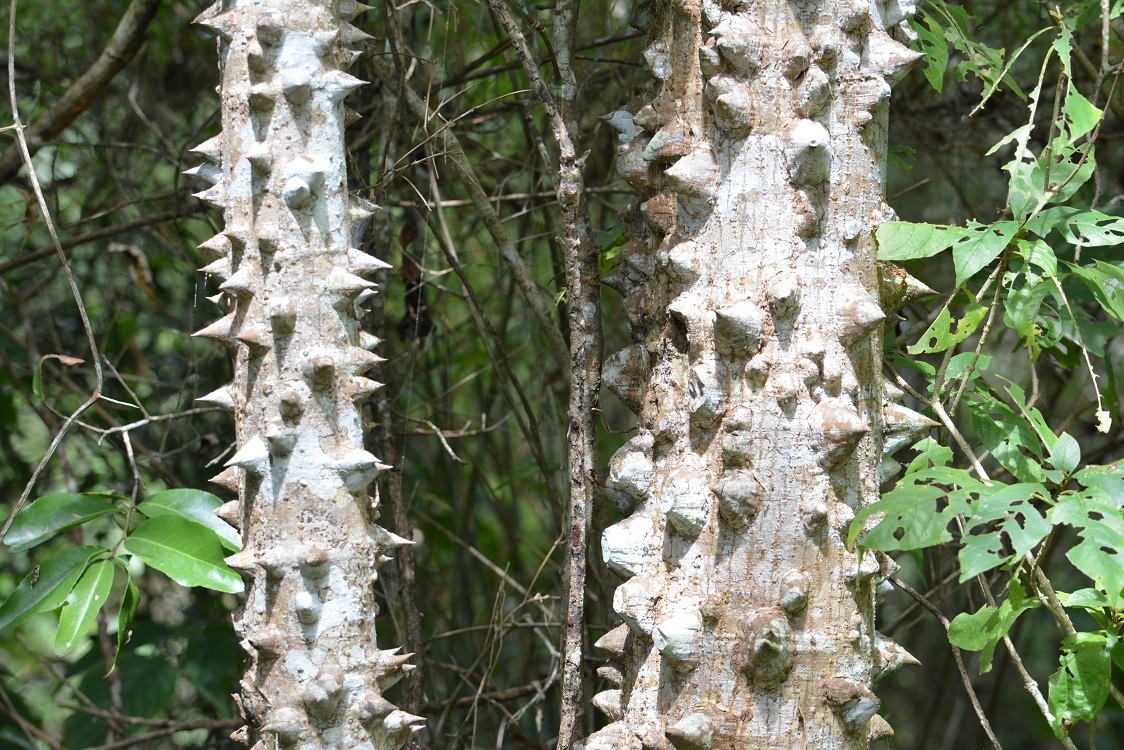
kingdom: Plantae
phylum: Tracheophyta
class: Magnoliopsida
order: Malvales
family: Malvaceae
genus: Ceiba
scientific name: Ceiba aesculifolia
